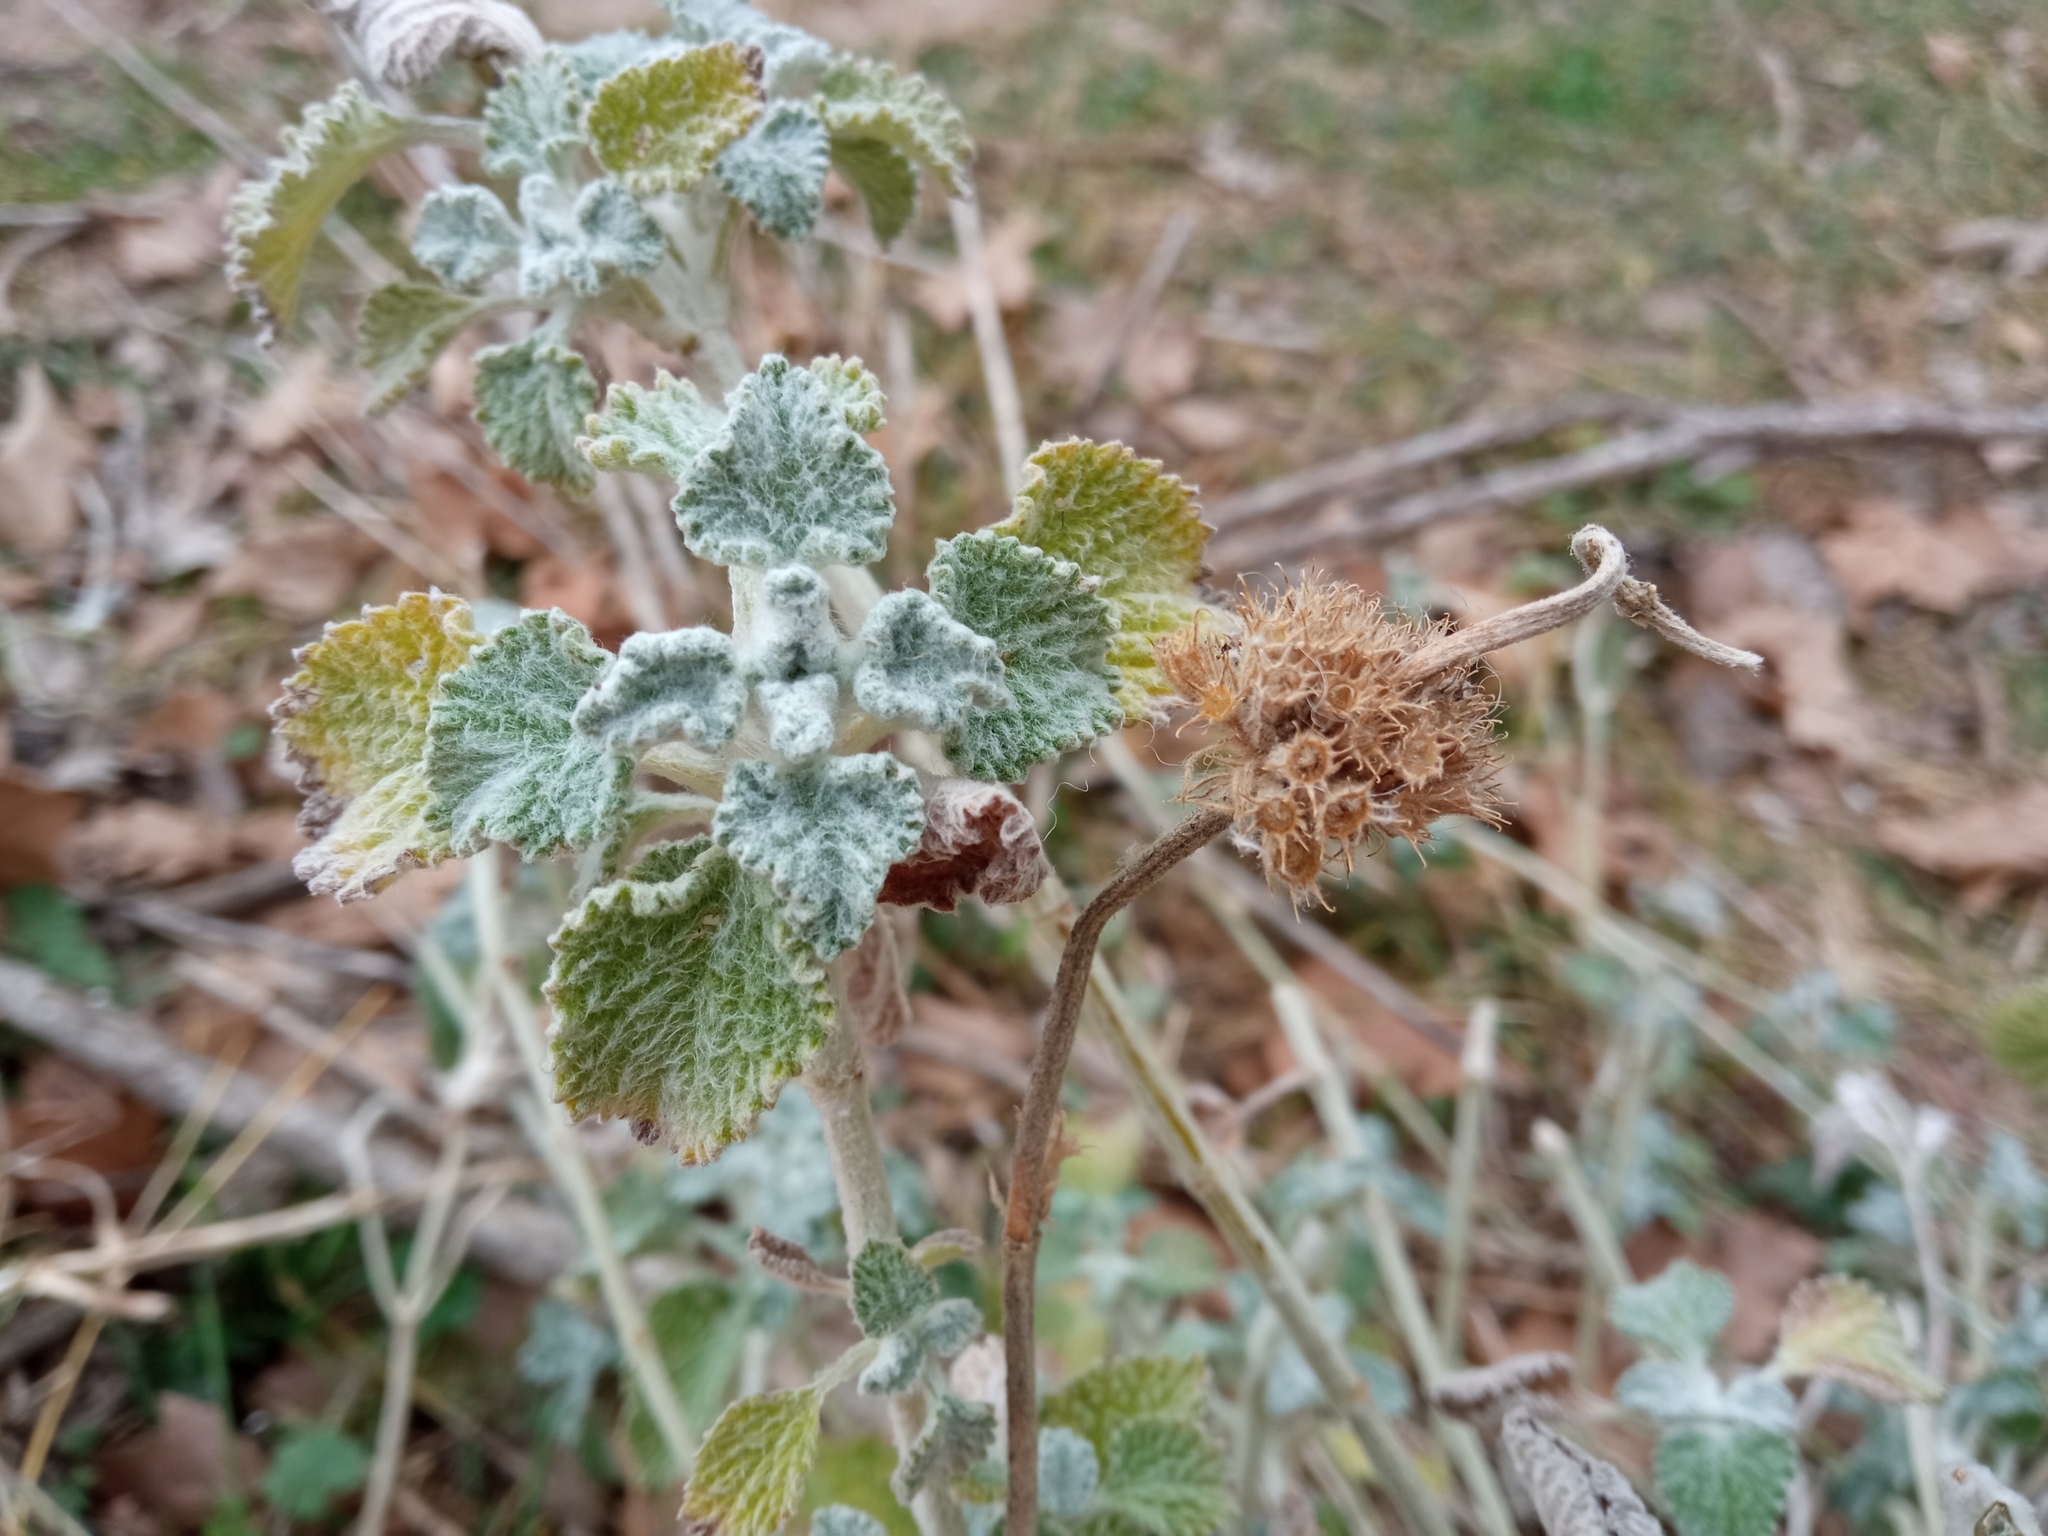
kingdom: Plantae
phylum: Tracheophyta
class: Magnoliopsida
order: Lamiales
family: Lamiaceae
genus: Marrubium
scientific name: Marrubium vulgare
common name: Horehound
